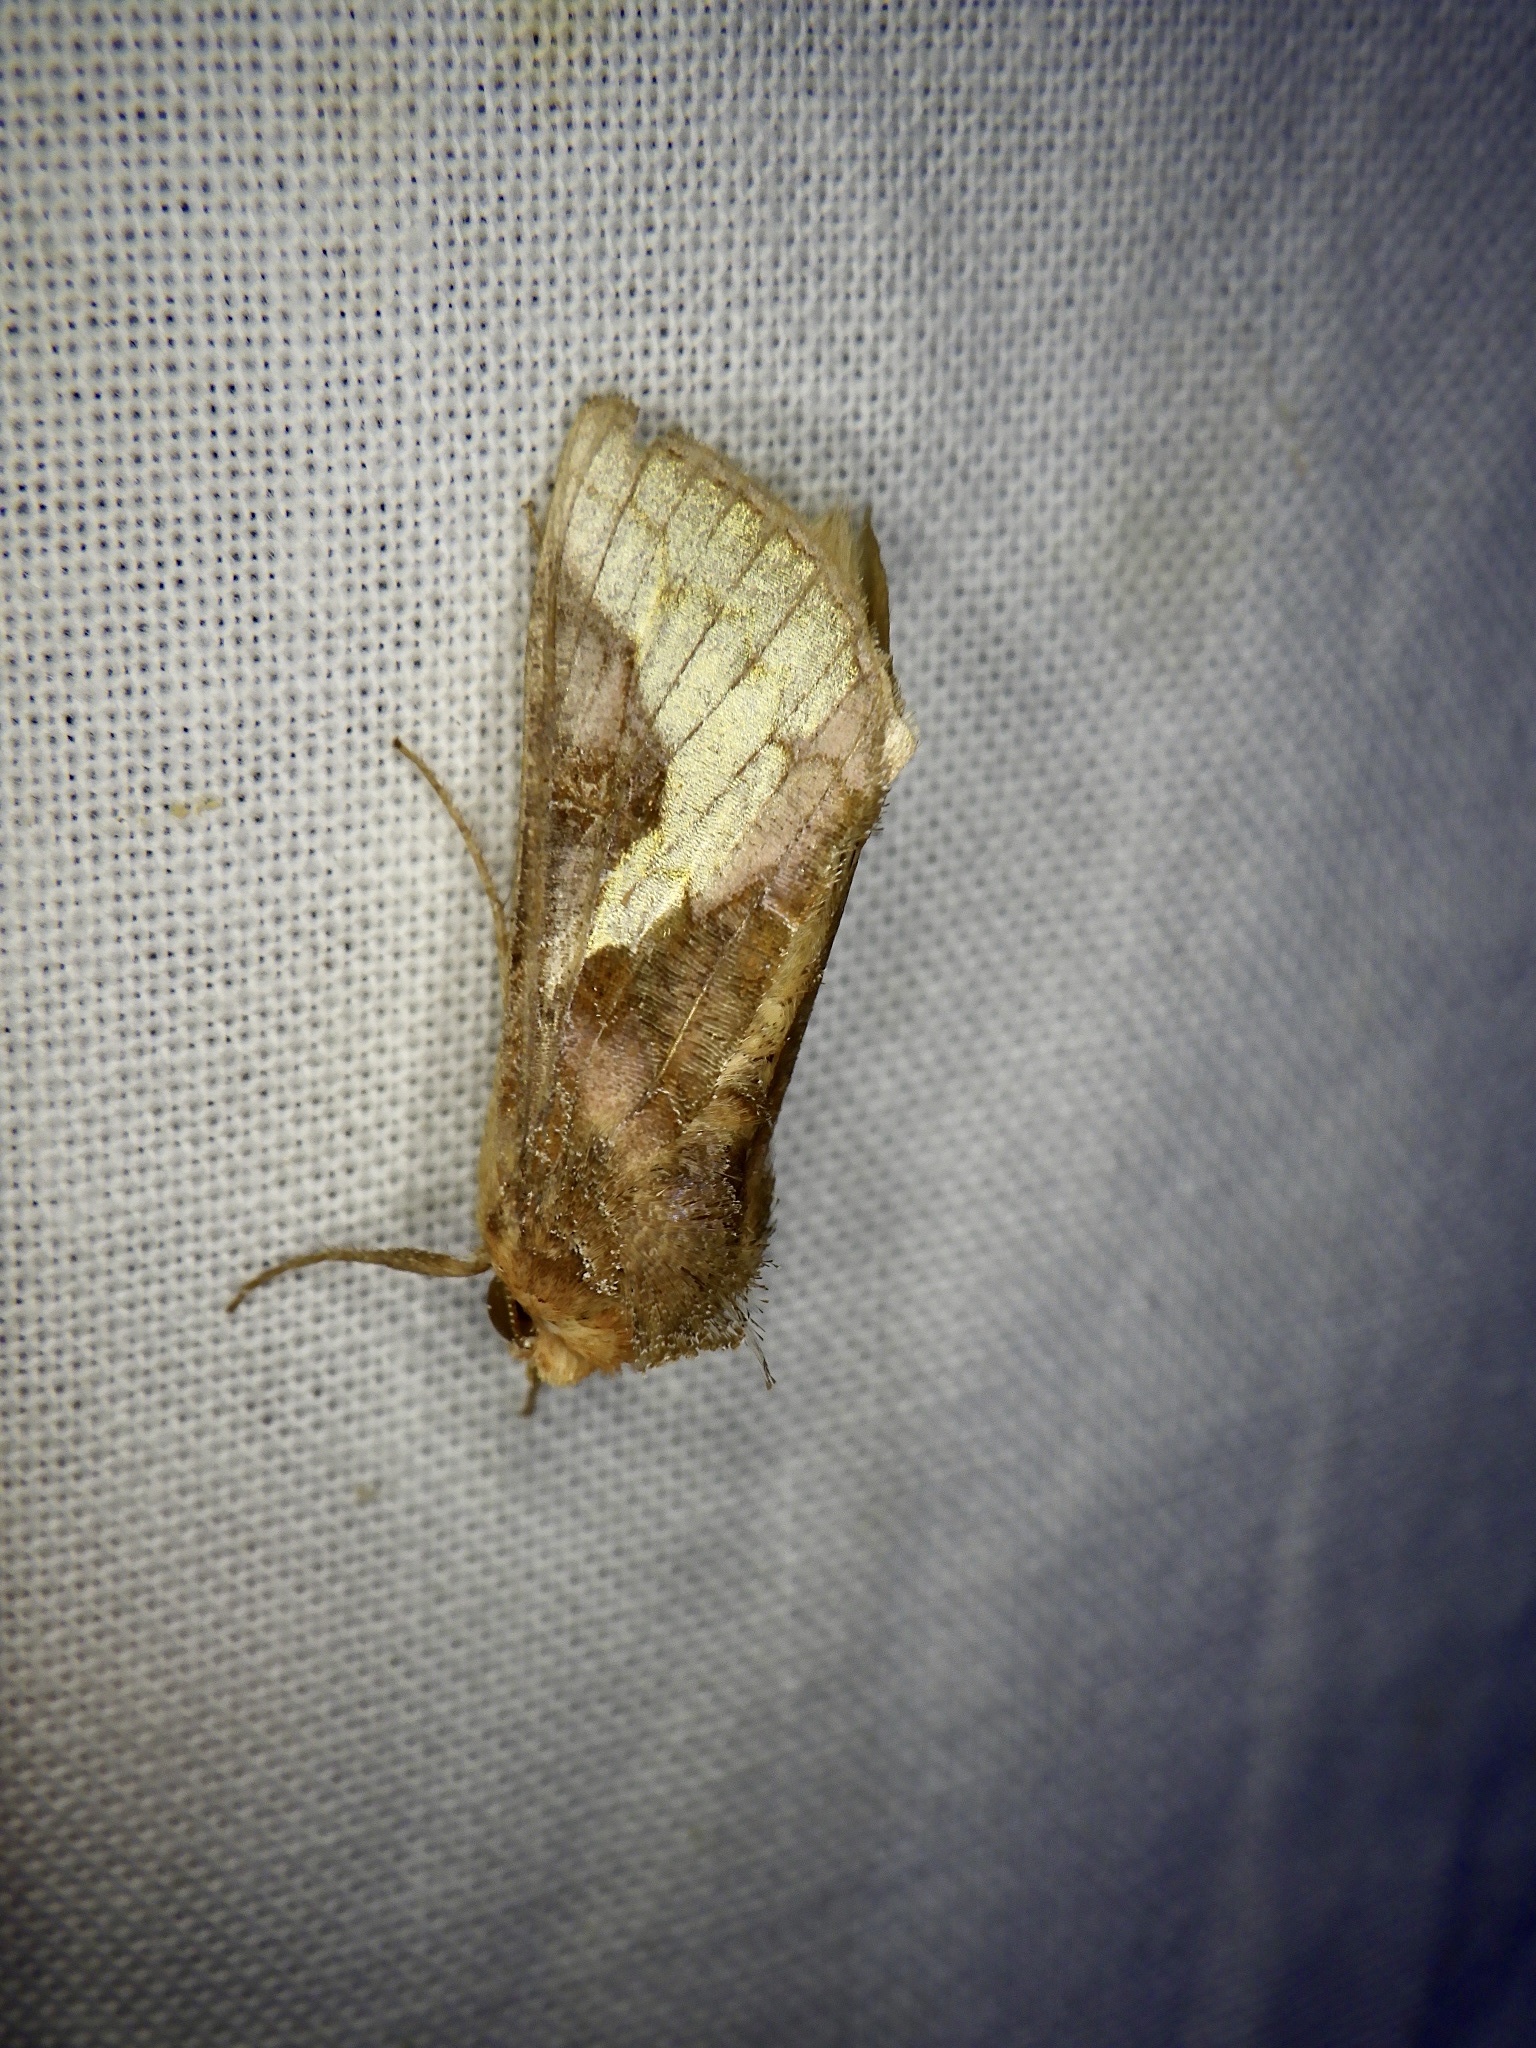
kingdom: Animalia
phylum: Arthropoda
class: Insecta
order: Lepidoptera
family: Noctuidae
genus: Thysanoplusia
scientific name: Thysanoplusia intermixta
